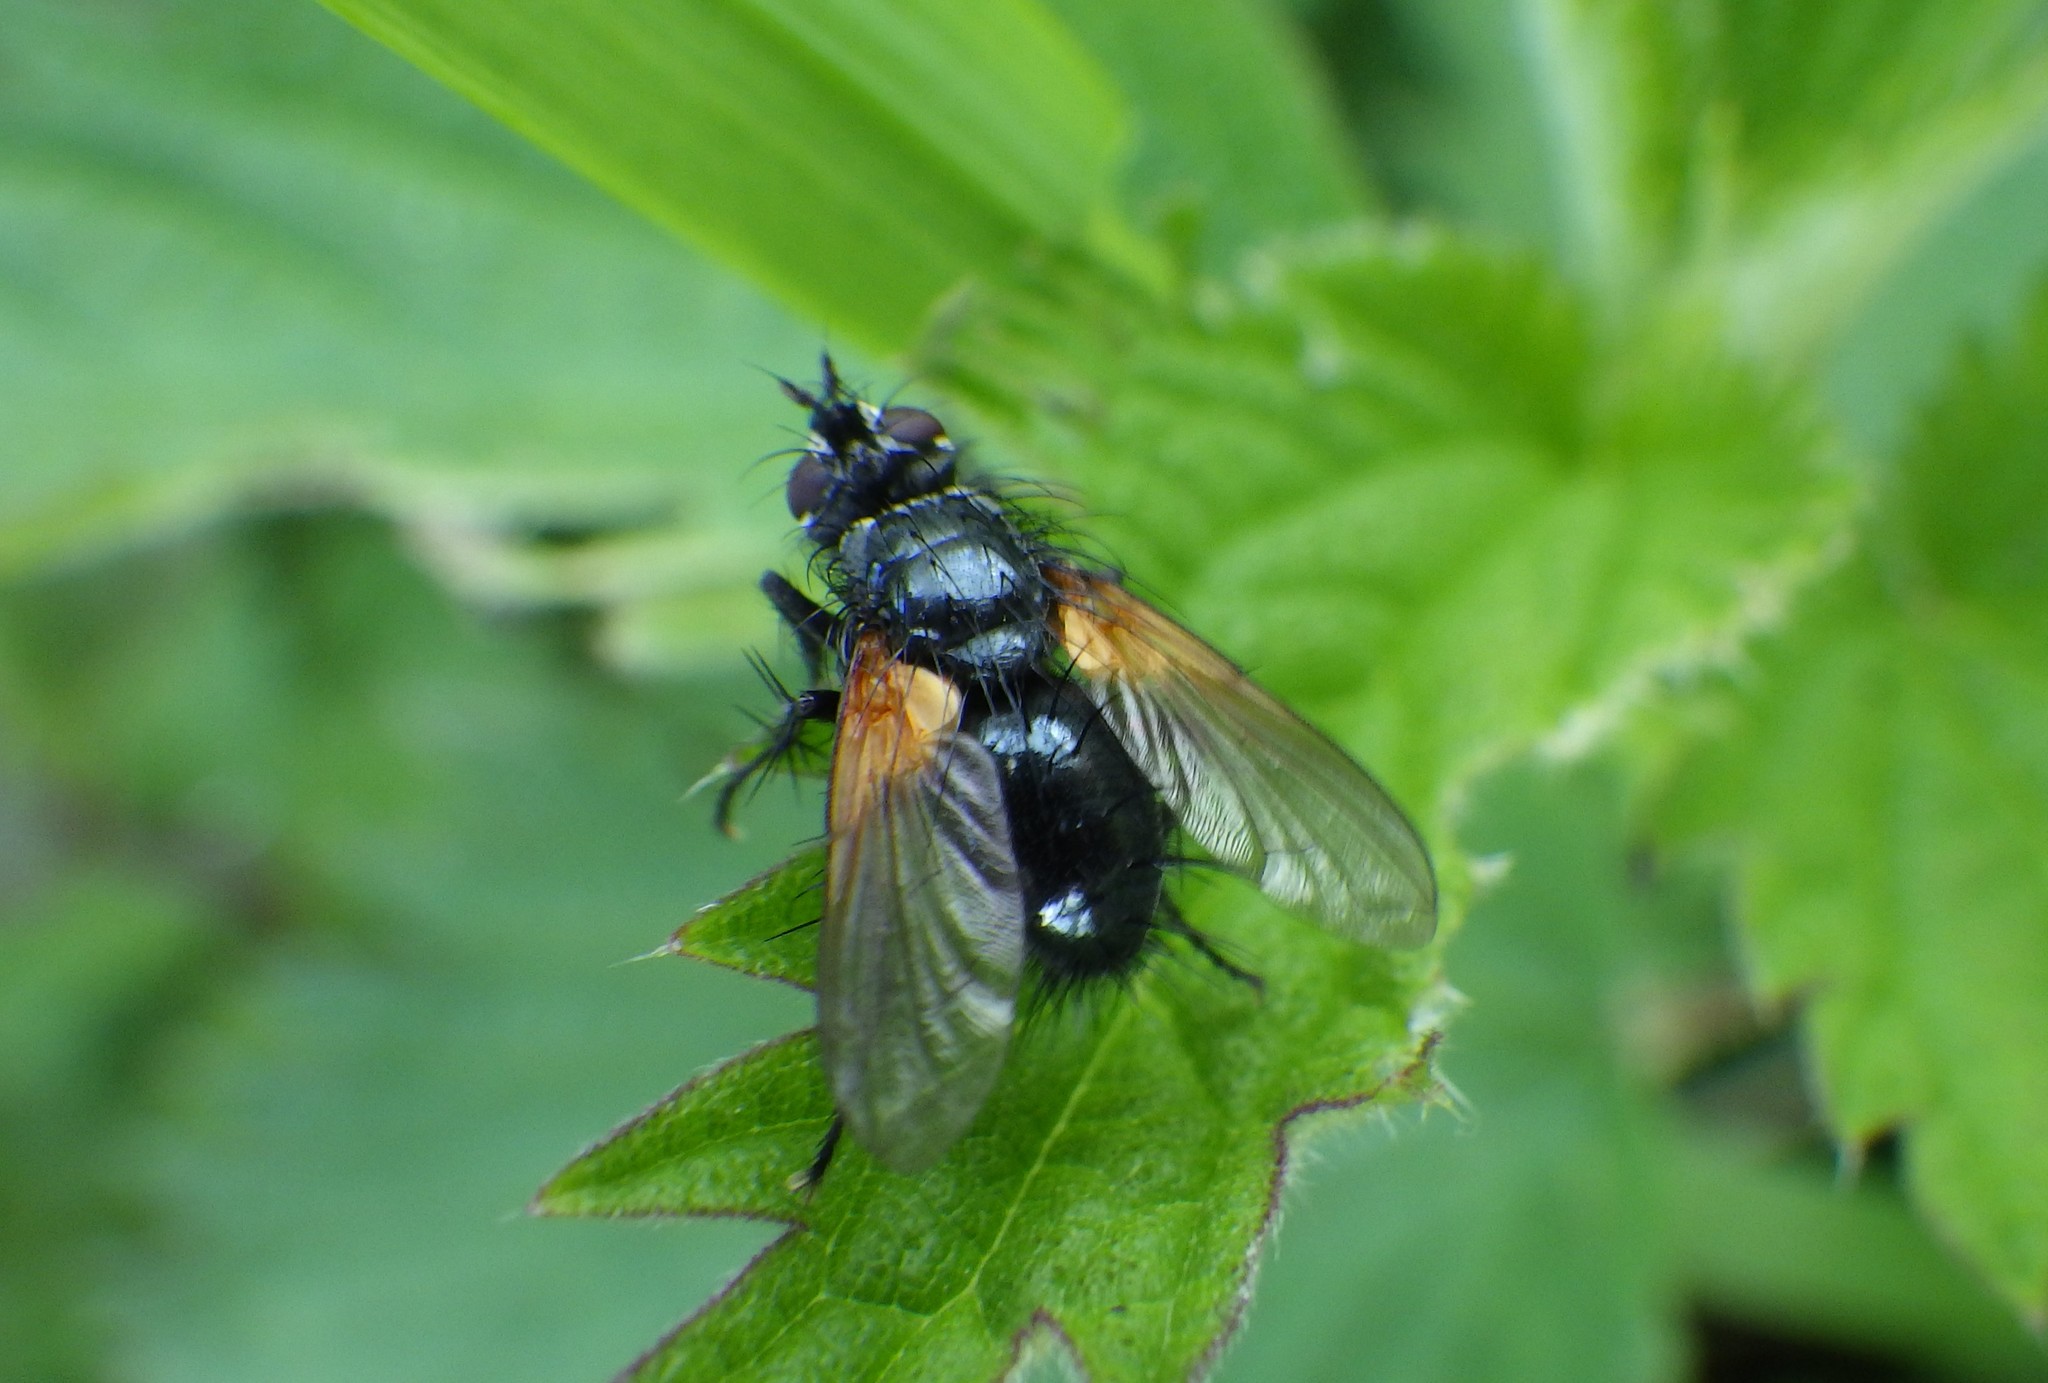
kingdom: Animalia
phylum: Arthropoda
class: Insecta
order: Diptera
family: Tachinidae
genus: Zophomyia
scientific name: Zophomyia temula
